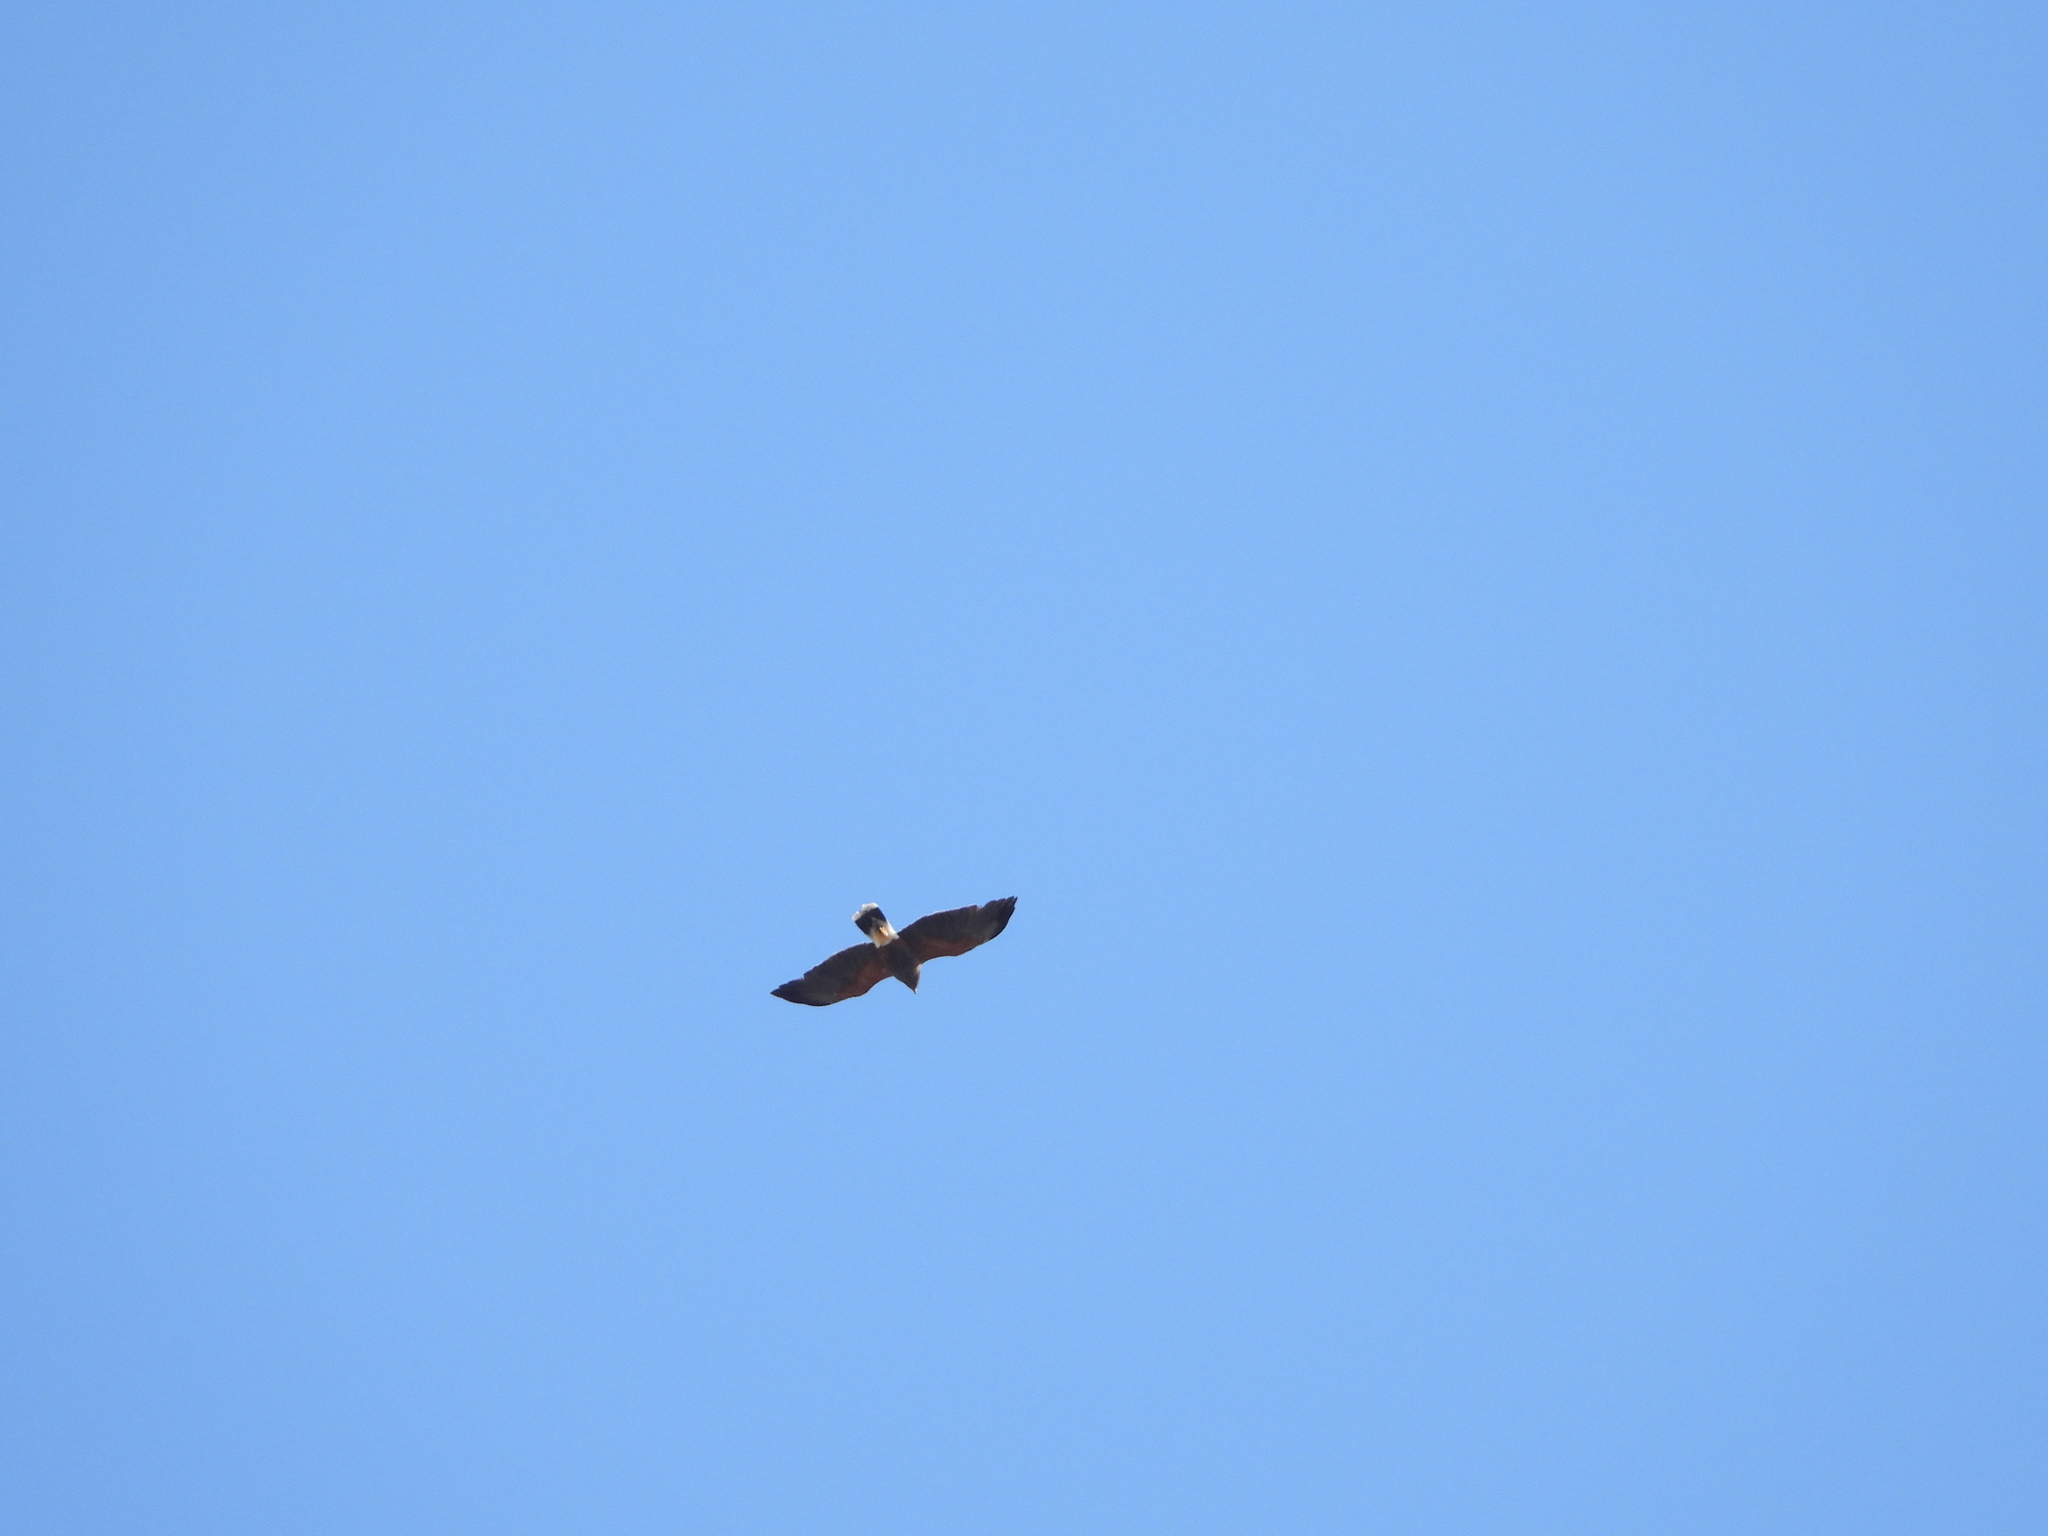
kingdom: Animalia
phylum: Chordata
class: Aves
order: Accipitriformes
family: Accipitridae
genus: Parabuteo
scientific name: Parabuteo unicinctus
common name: Harris's hawk
